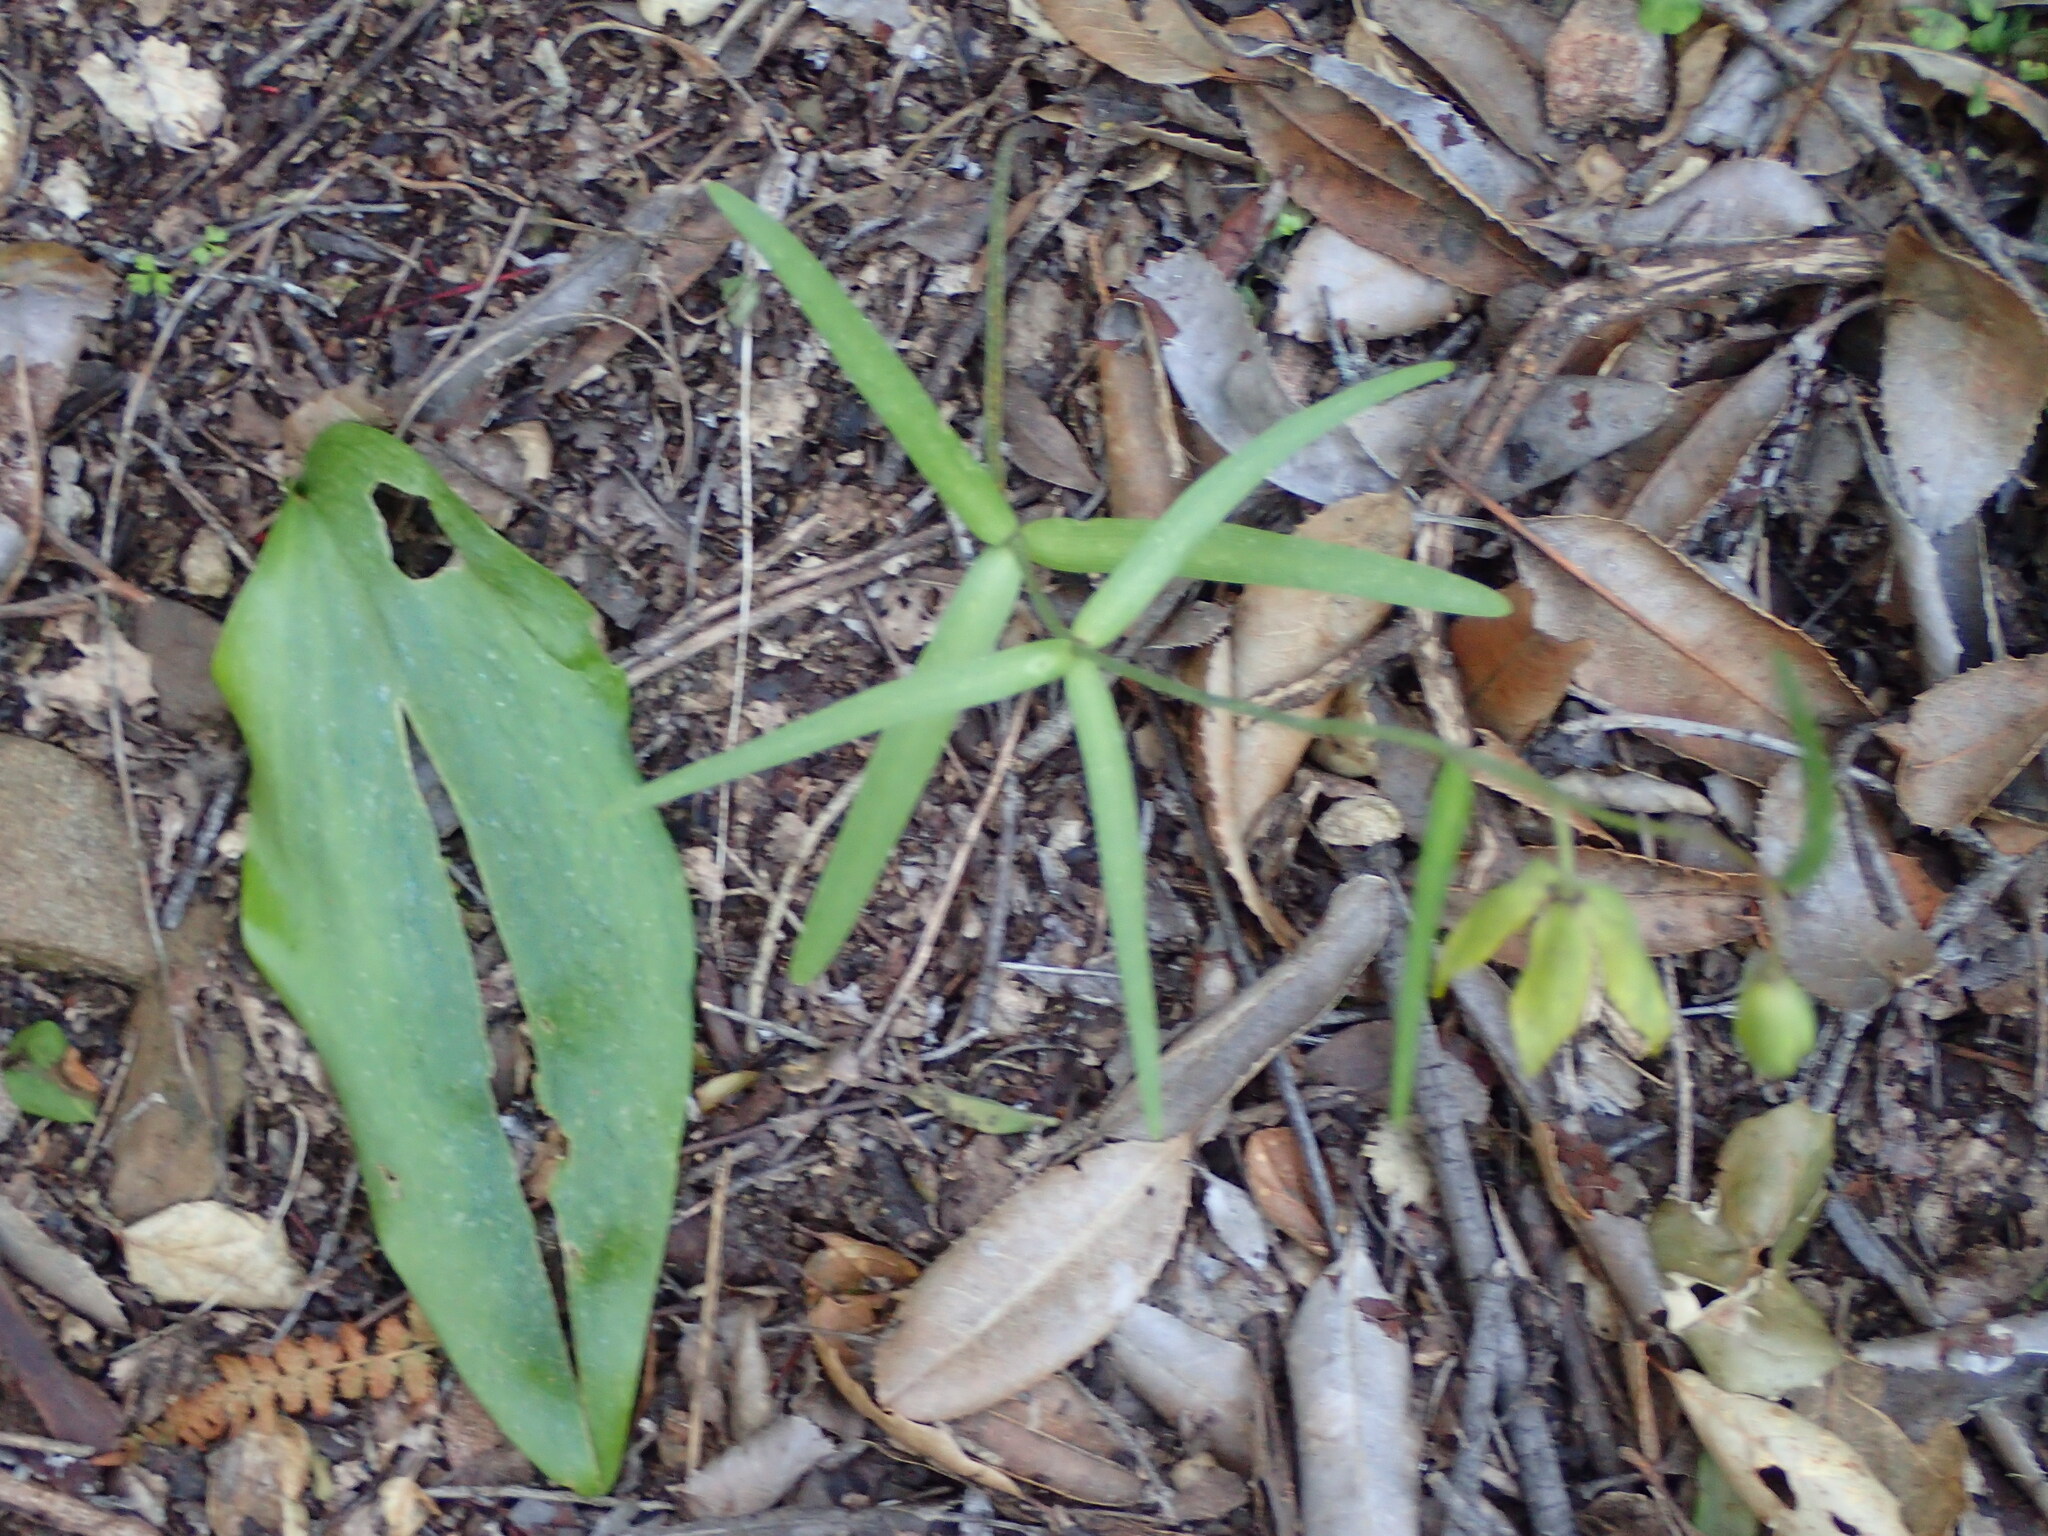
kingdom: Plantae
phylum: Tracheophyta
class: Liliopsida
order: Liliales
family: Liliaceae
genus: Fritillaria
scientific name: Fritillaria ojaiensis
